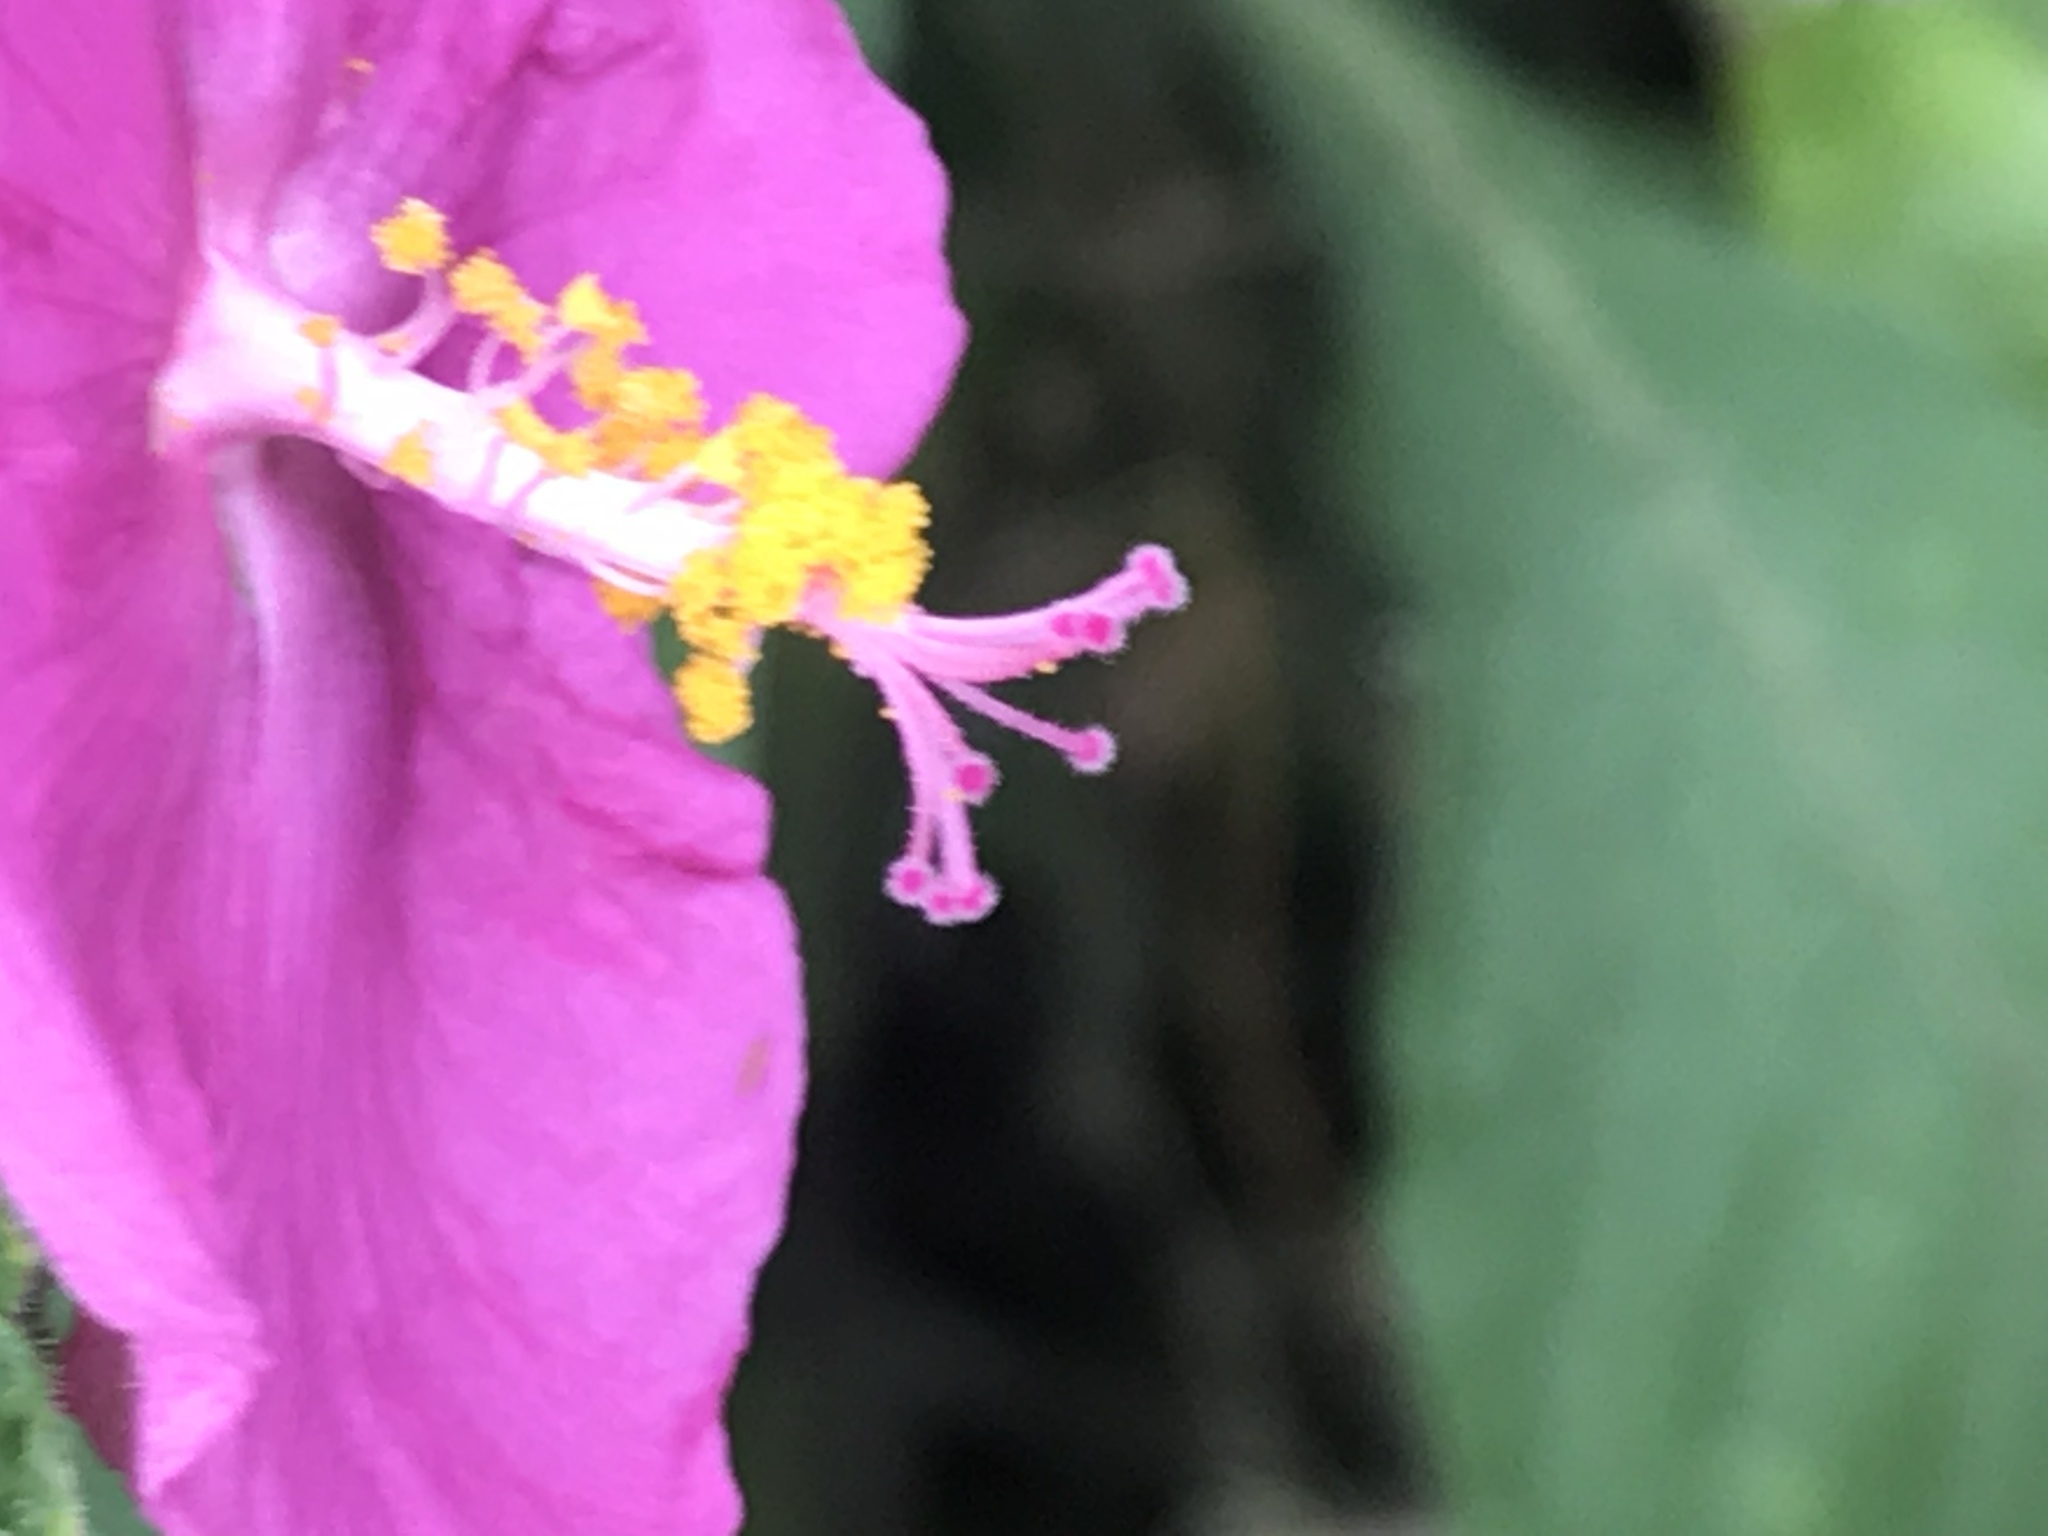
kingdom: Plantae
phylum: Tracheophyta
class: Magnoliopsida
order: Malvales
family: Malvaceae
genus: Pavonia
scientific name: Pavonia lasiopetala
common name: Texas swamp-mallow
